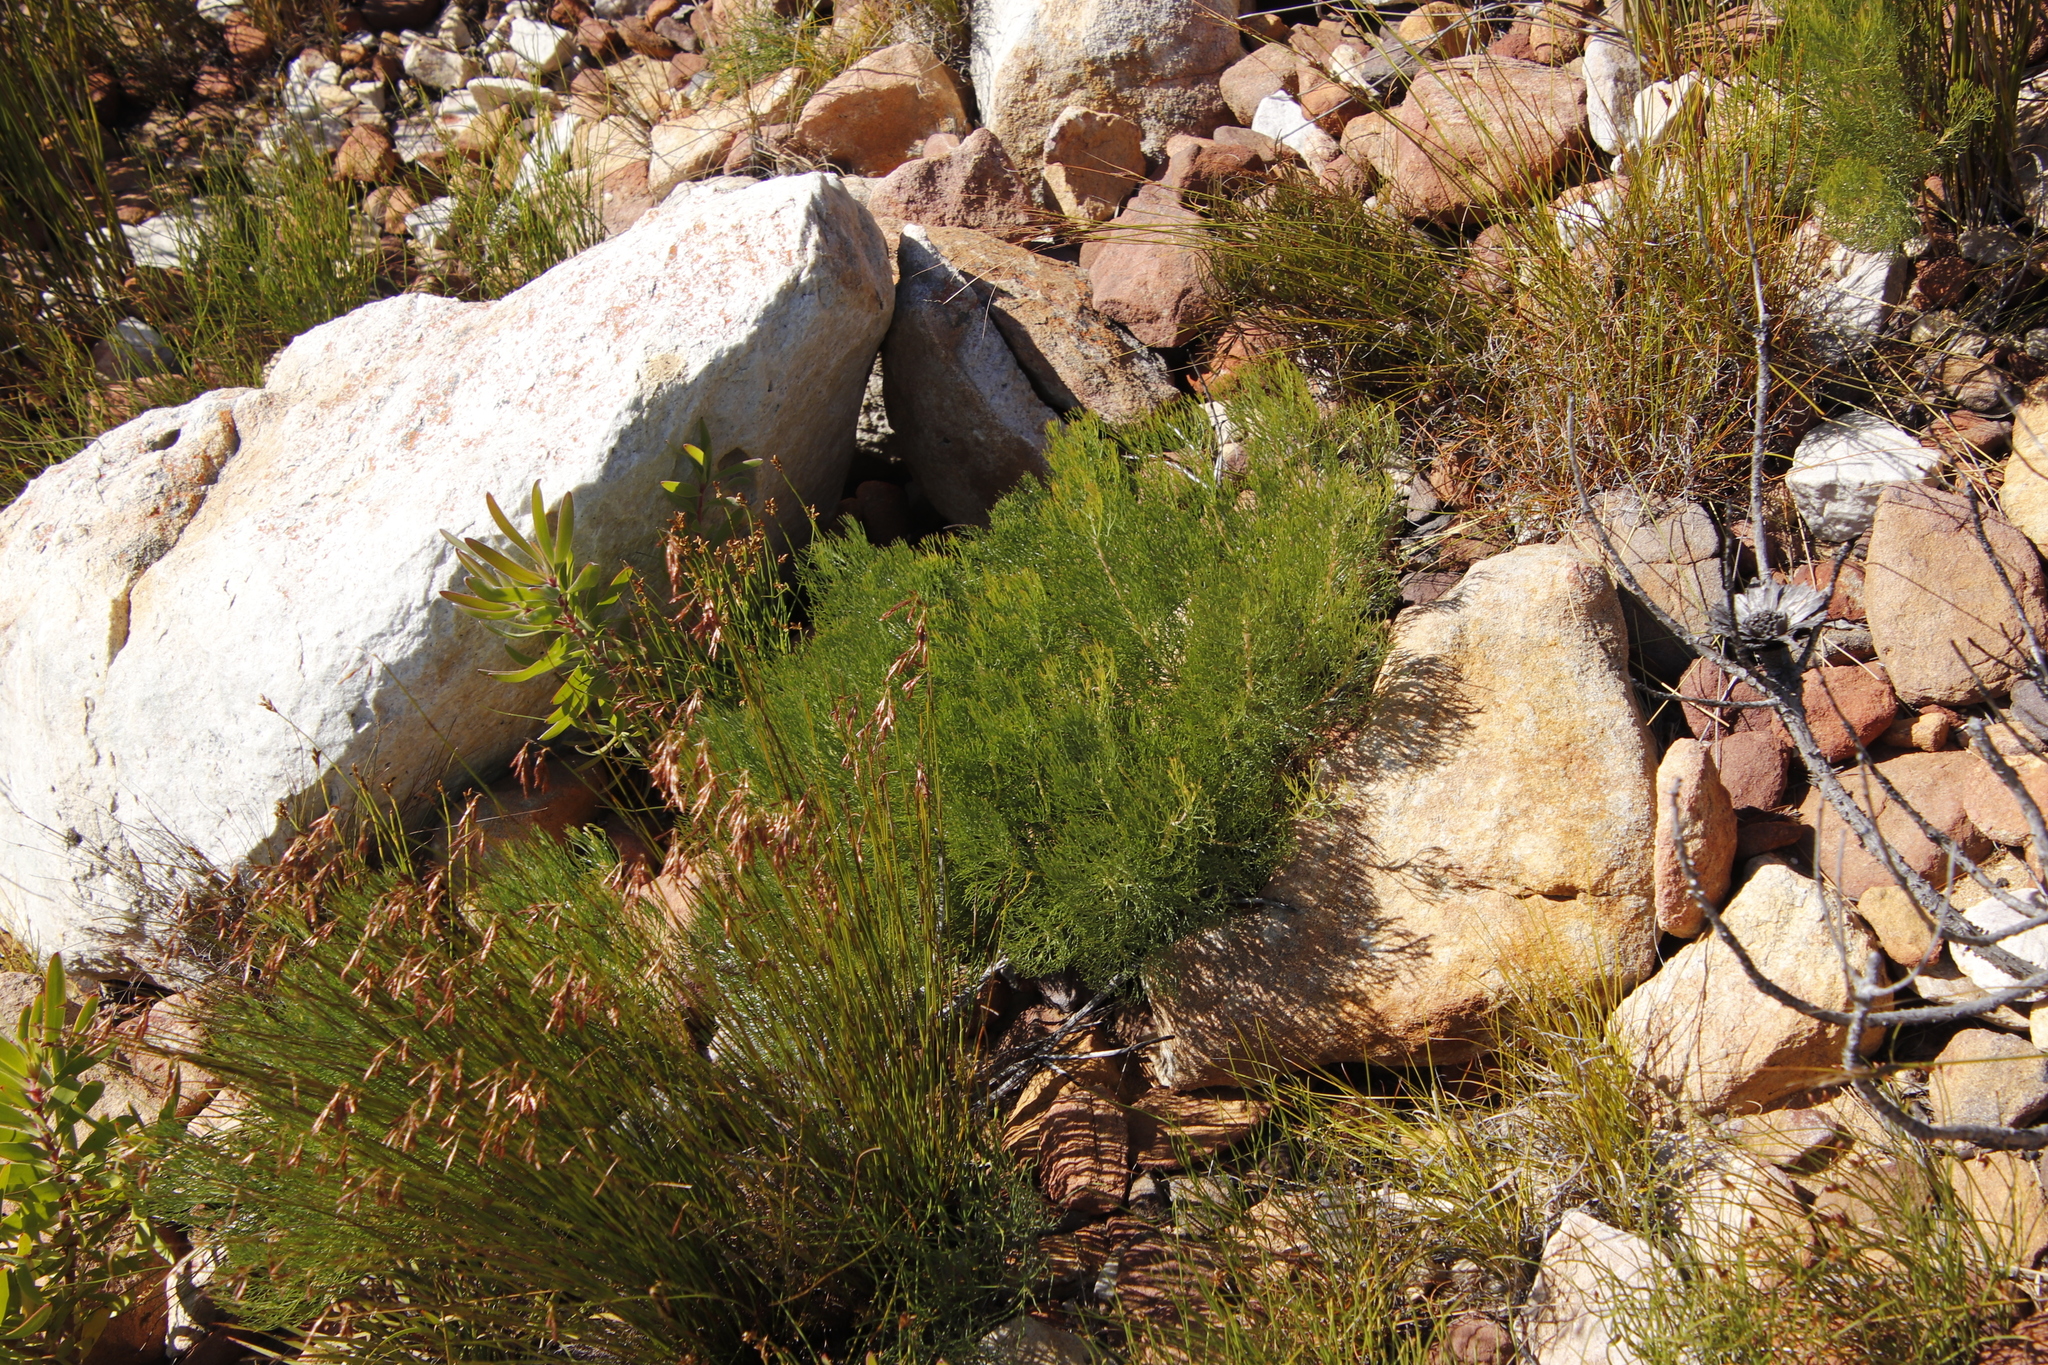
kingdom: Plantae
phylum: Tracheophyta
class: Magnoliopsida
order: Proteales
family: Proteaceae
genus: Serruria
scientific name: Serruria fasciflora
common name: Common pin spiderhead
